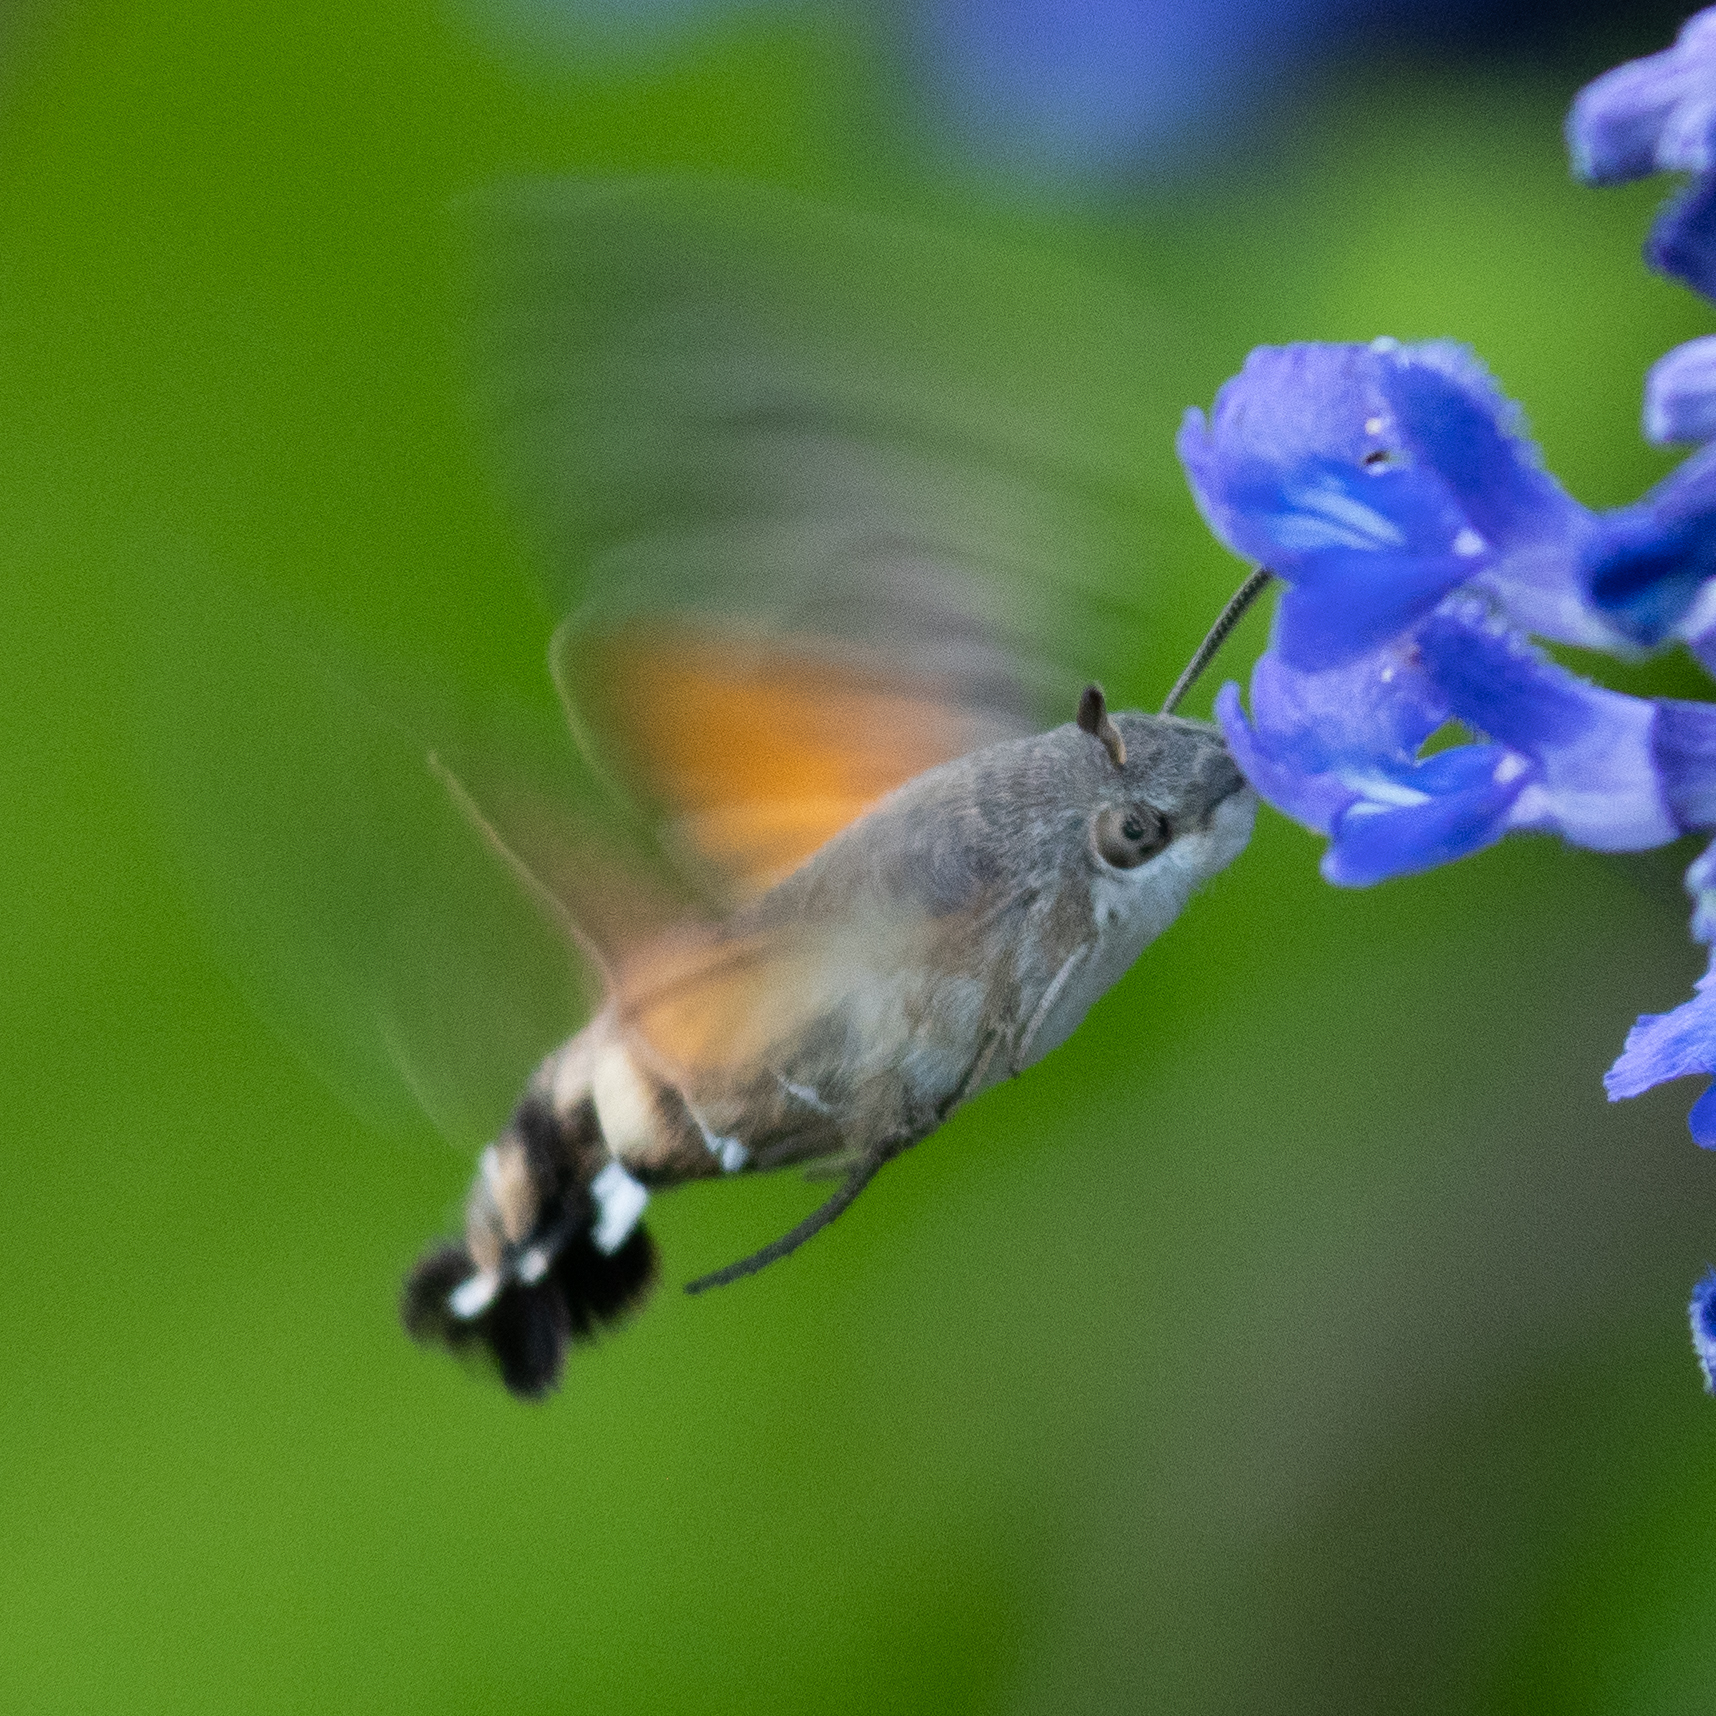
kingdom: Animalia
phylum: Arthropoda
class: Insecta
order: Lepidoptera
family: Sphingidae
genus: Macroglossum
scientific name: Macroglossum stellatarum
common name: Humming-bird hawk-moth
